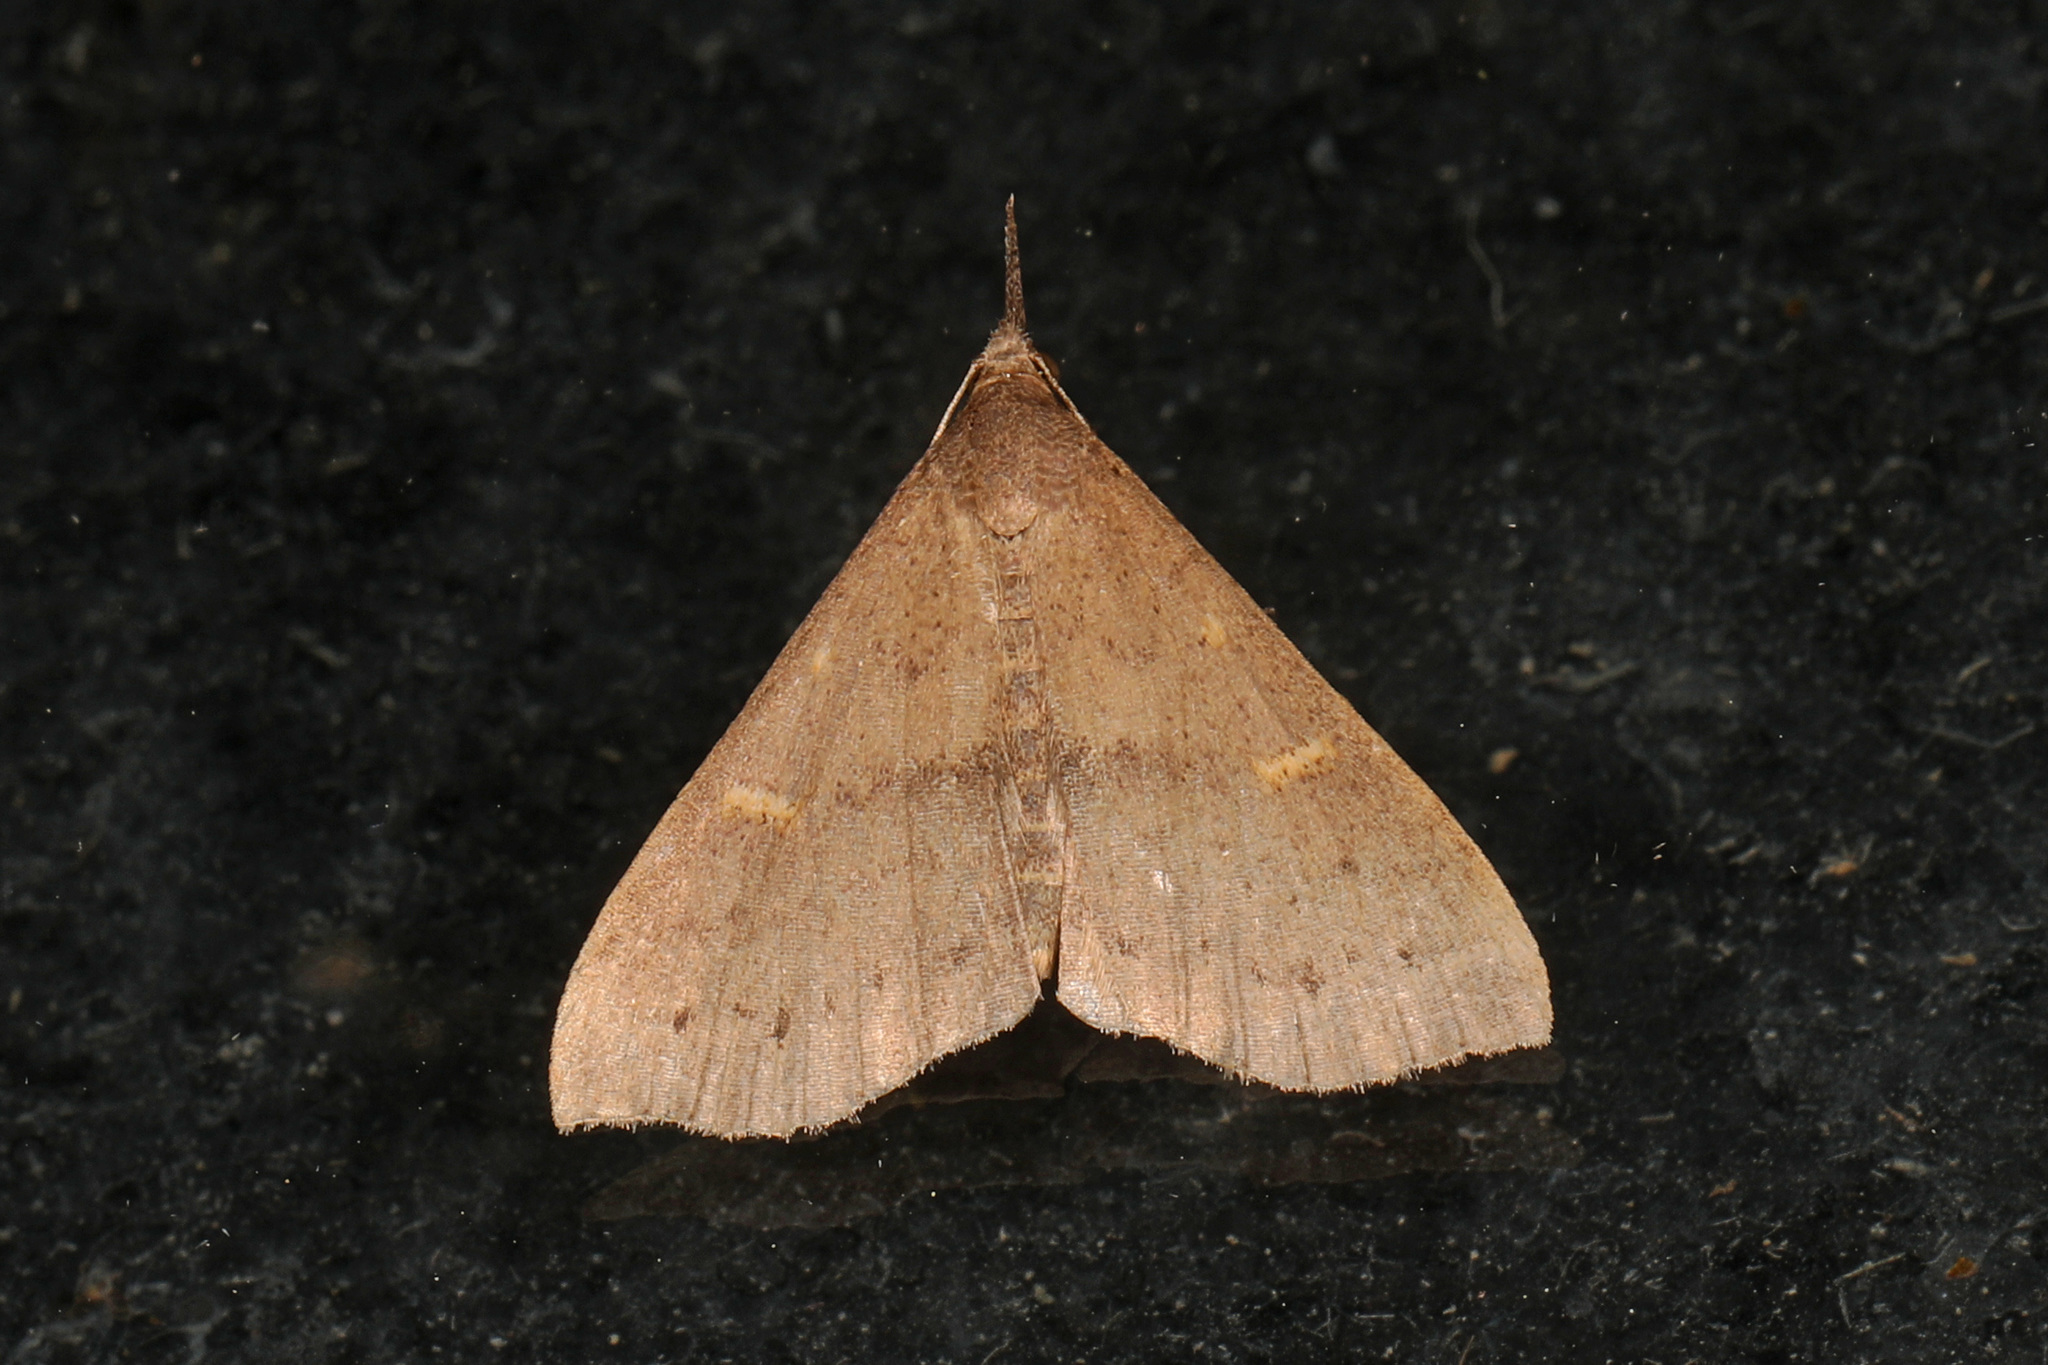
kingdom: Animalia
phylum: Arthropoda
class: Insecta
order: Lepidoptera
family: Erebidae
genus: Renia
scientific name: Renia adspergillus
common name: Speckled renia moth
